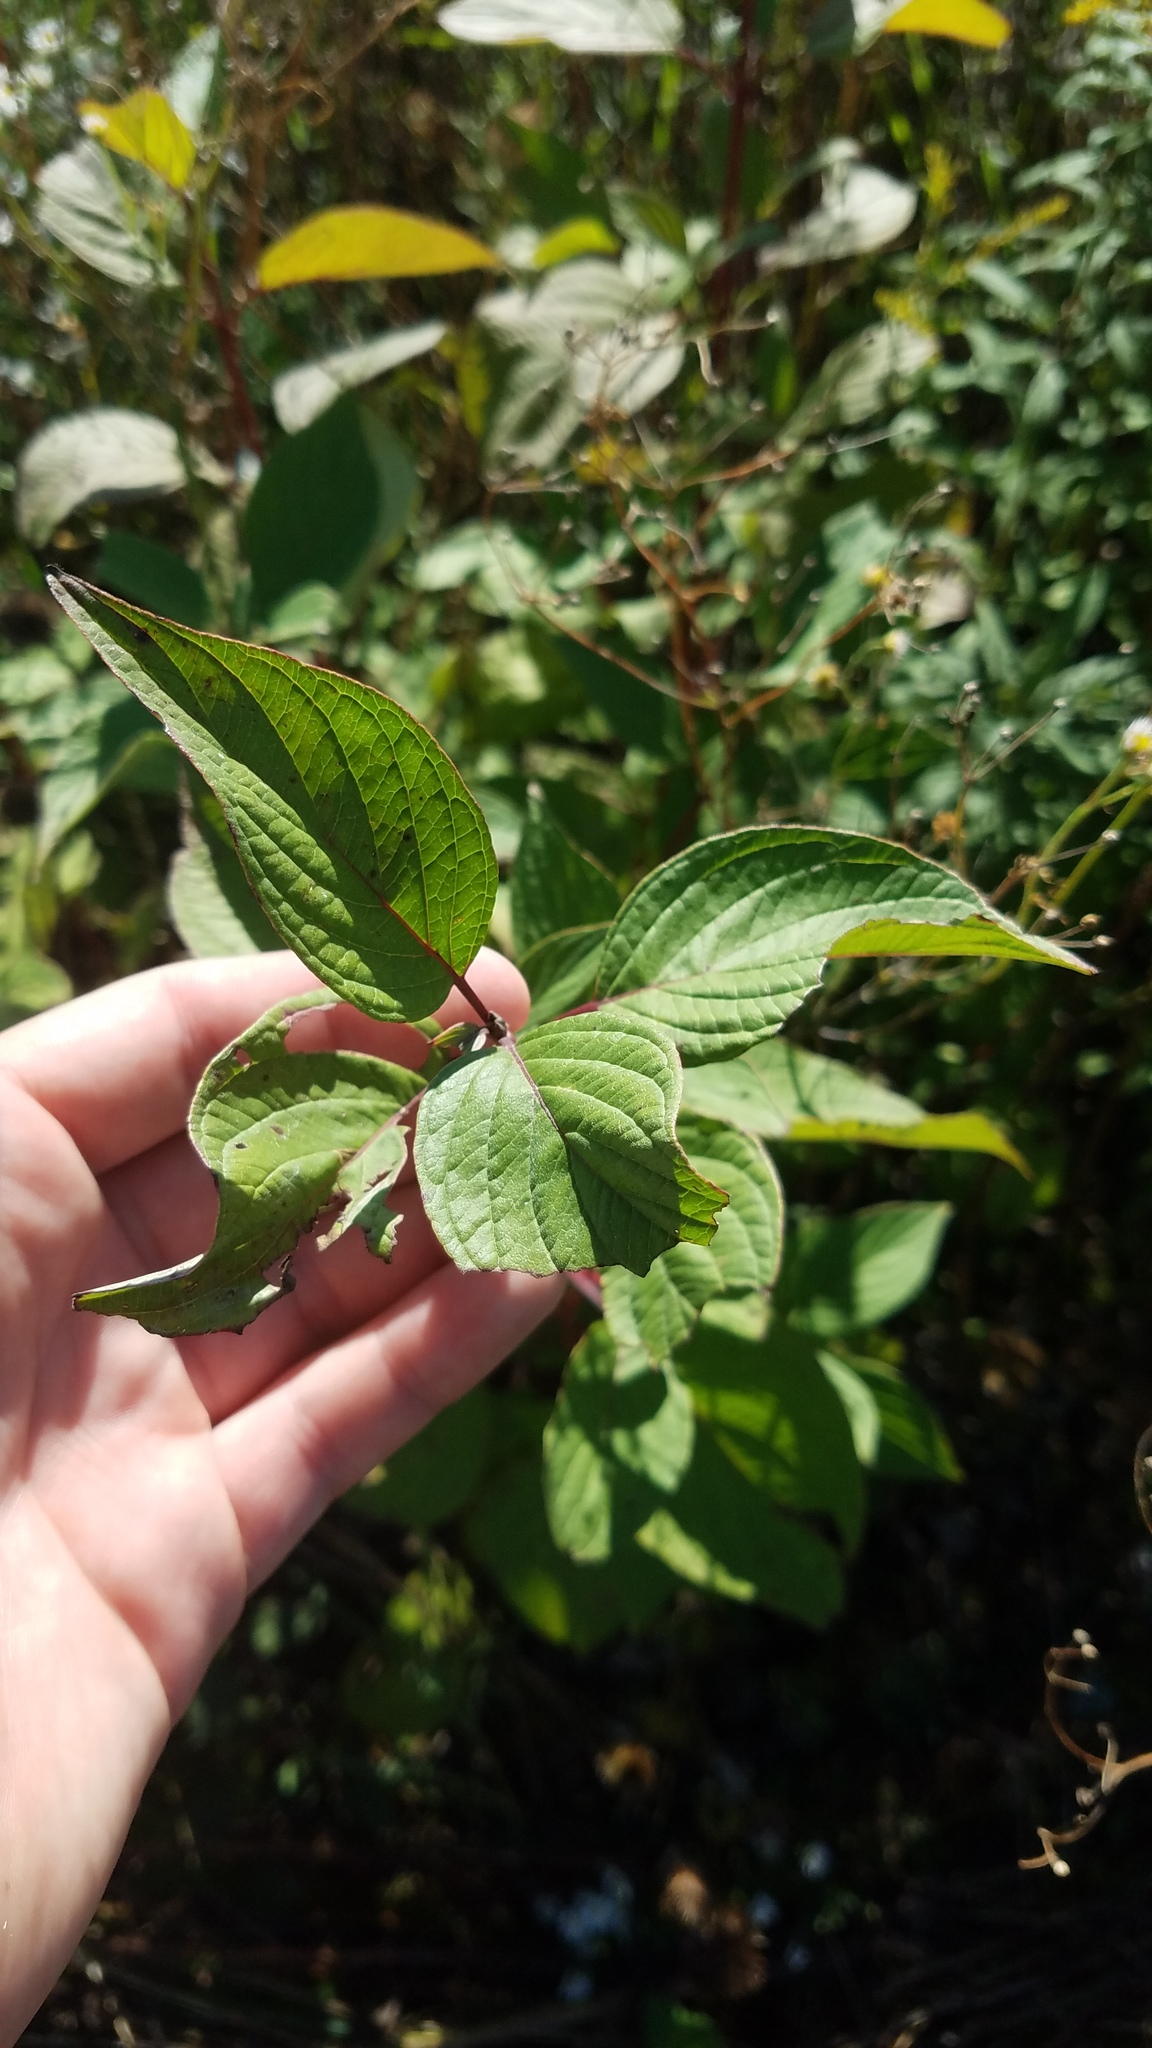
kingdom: Plantae
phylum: Tracheophyta
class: Magnoliopsida
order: Cornales
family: Cornaceae
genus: Cornus
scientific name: Cornus sericea
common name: Red-osier dogwood
